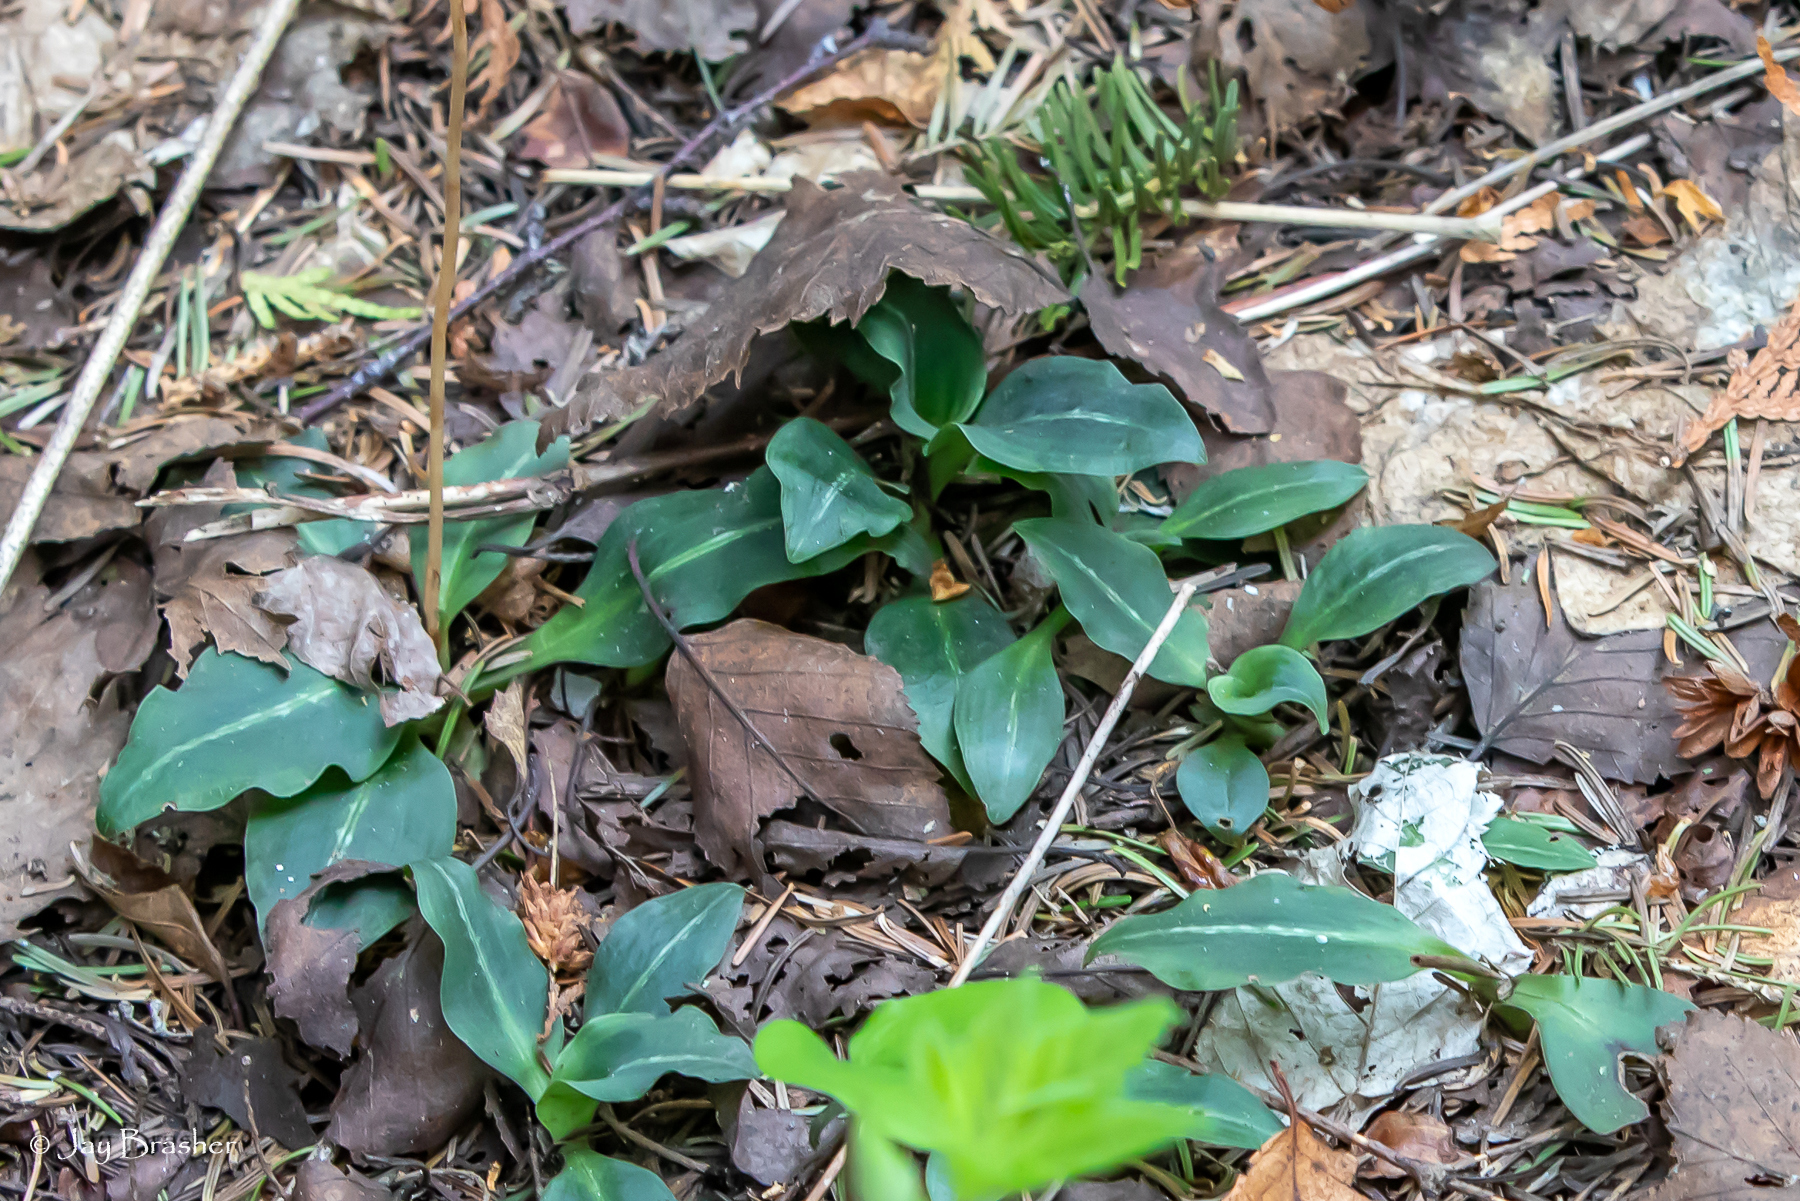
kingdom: Plantae
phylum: Tracheophyta
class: Liliopsida
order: Asparagales
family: Orchidaceae
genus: Goodyera
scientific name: Goodyera oblongifolia
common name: Giant rattlesnake-plantain
